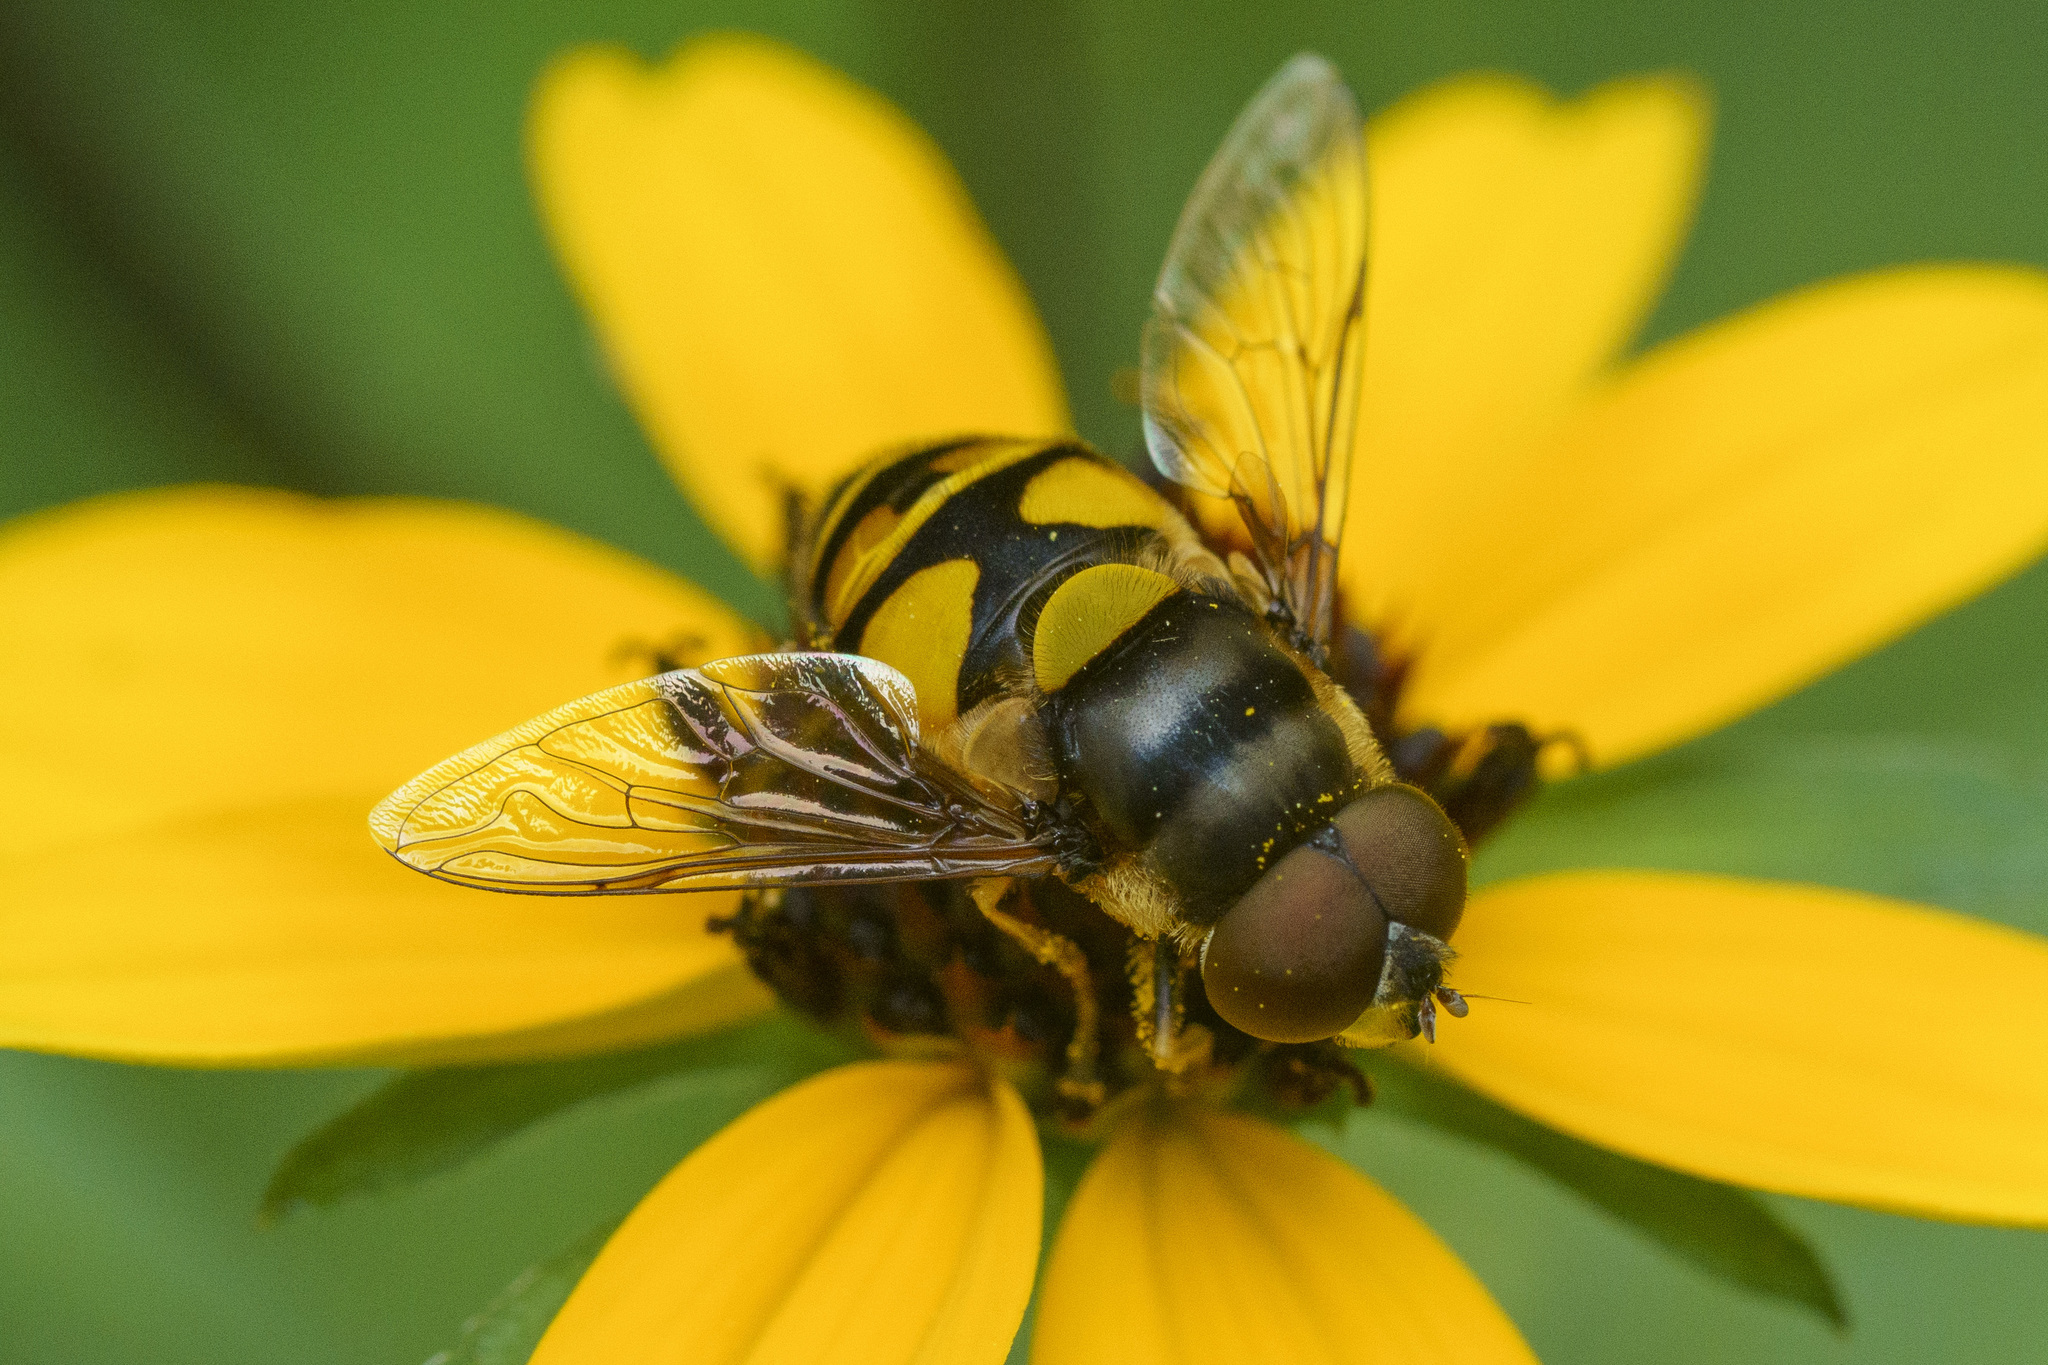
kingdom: Animalia
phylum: Arthropoda
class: Insecta
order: Diptera
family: Syrphidae
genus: Eristalis
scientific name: Eristalis transversa
